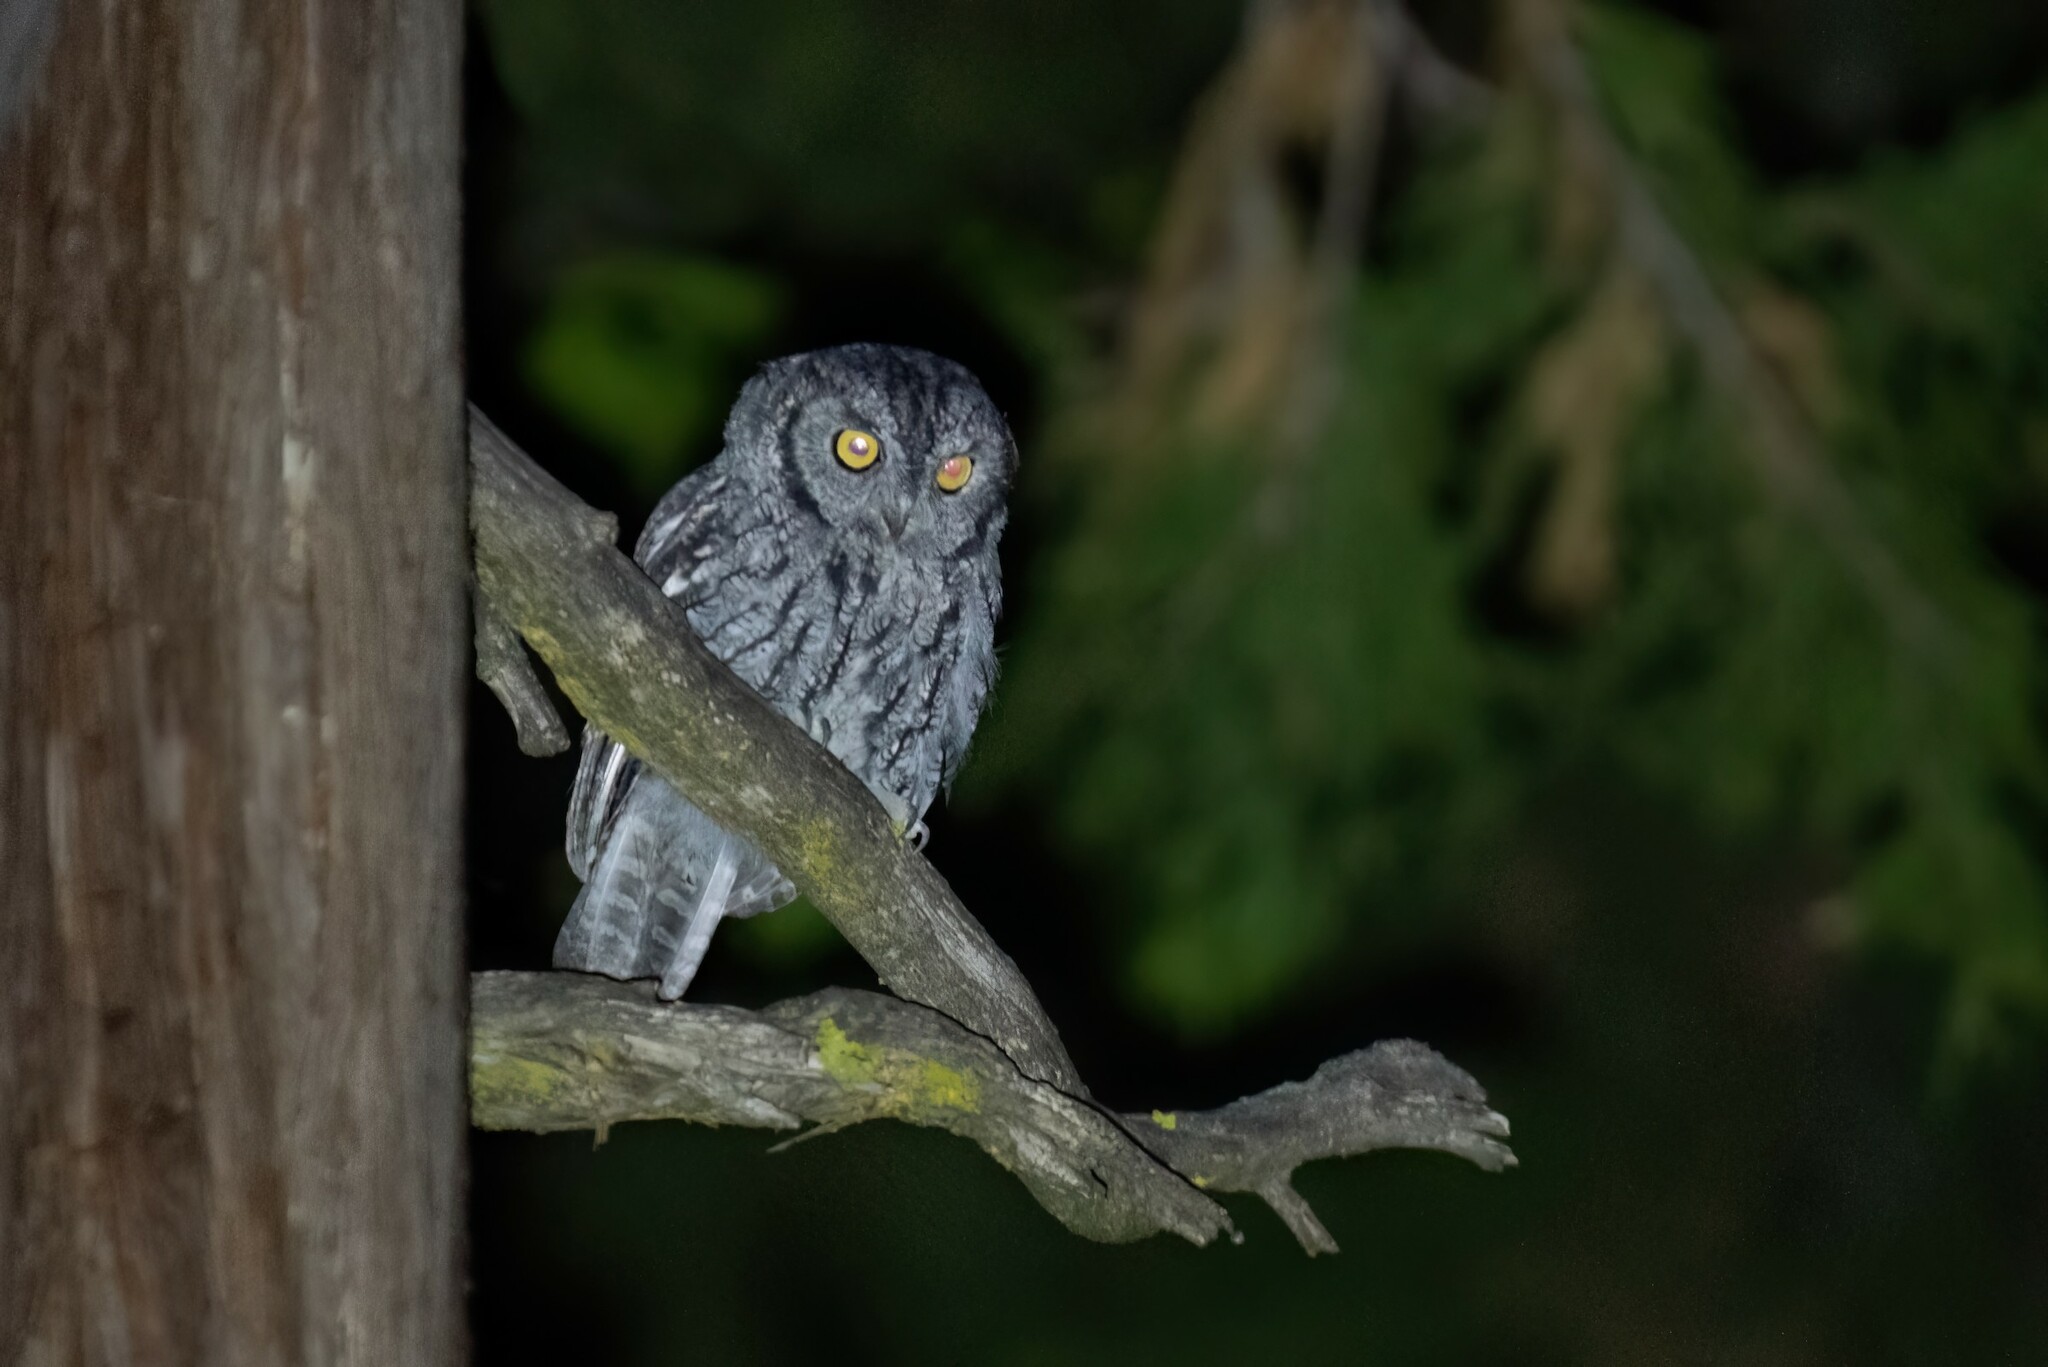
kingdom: Animalia
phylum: Chordata
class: Aves
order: Strigiformes
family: Strigidae
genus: Megascops
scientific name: Megascops kennicottii
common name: Western screech-owl
